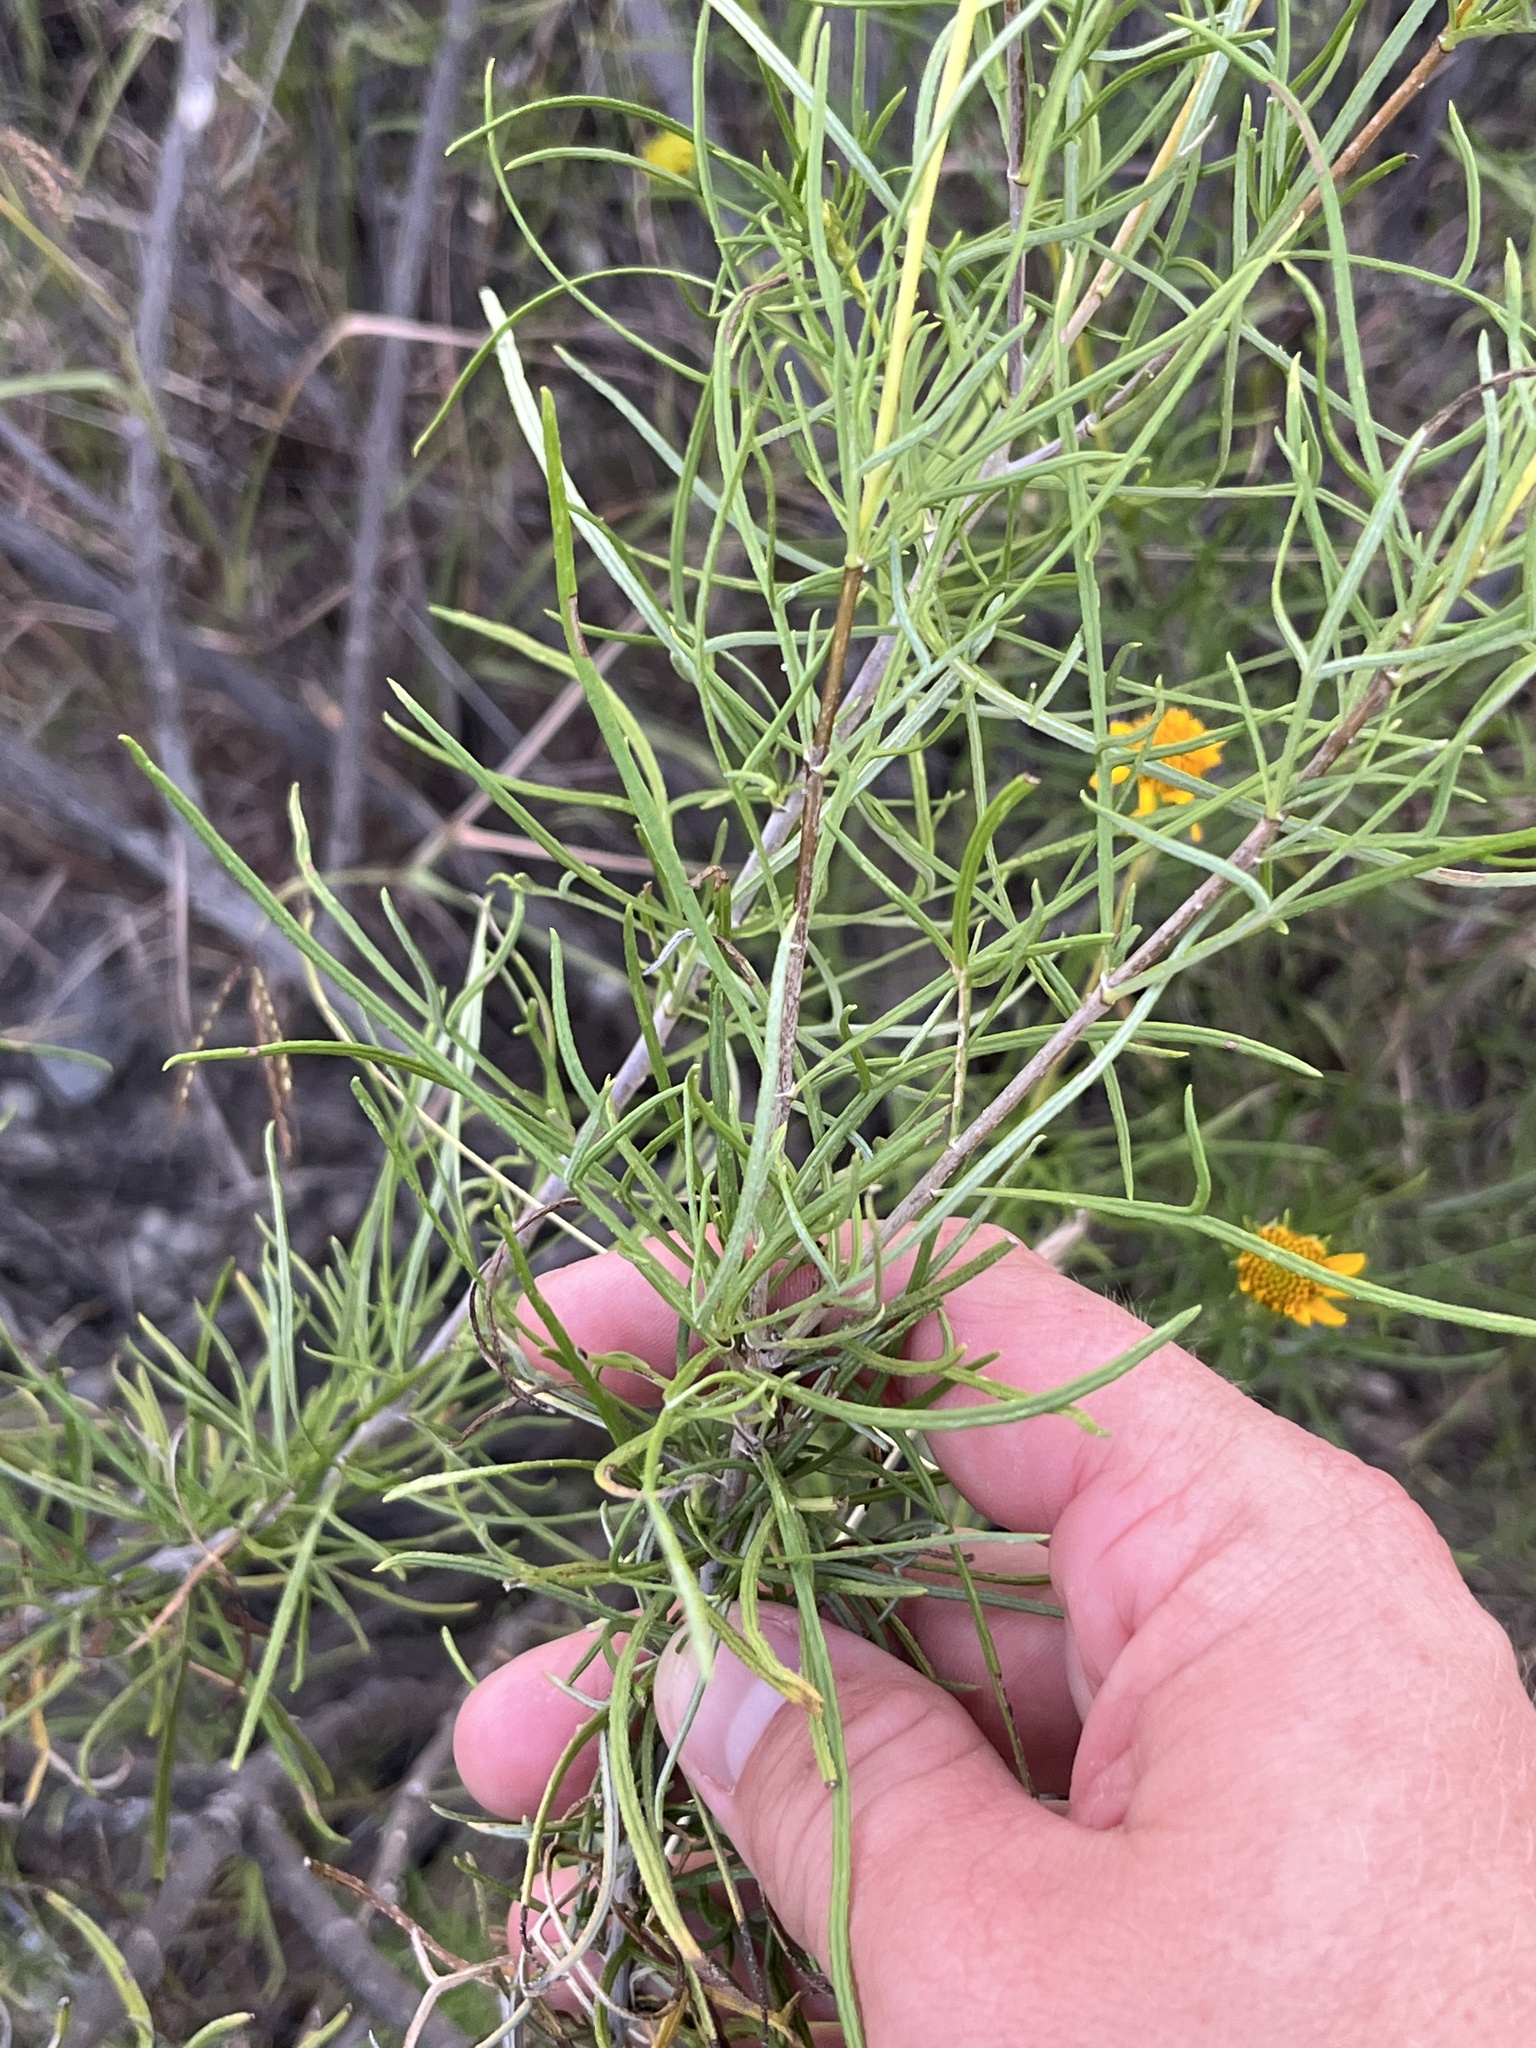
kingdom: Plantae
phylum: Tracheophyta
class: Magnoliopsida
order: Asterales
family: Asteraceae
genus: Sidneya
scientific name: Sidneya tenuifolia
